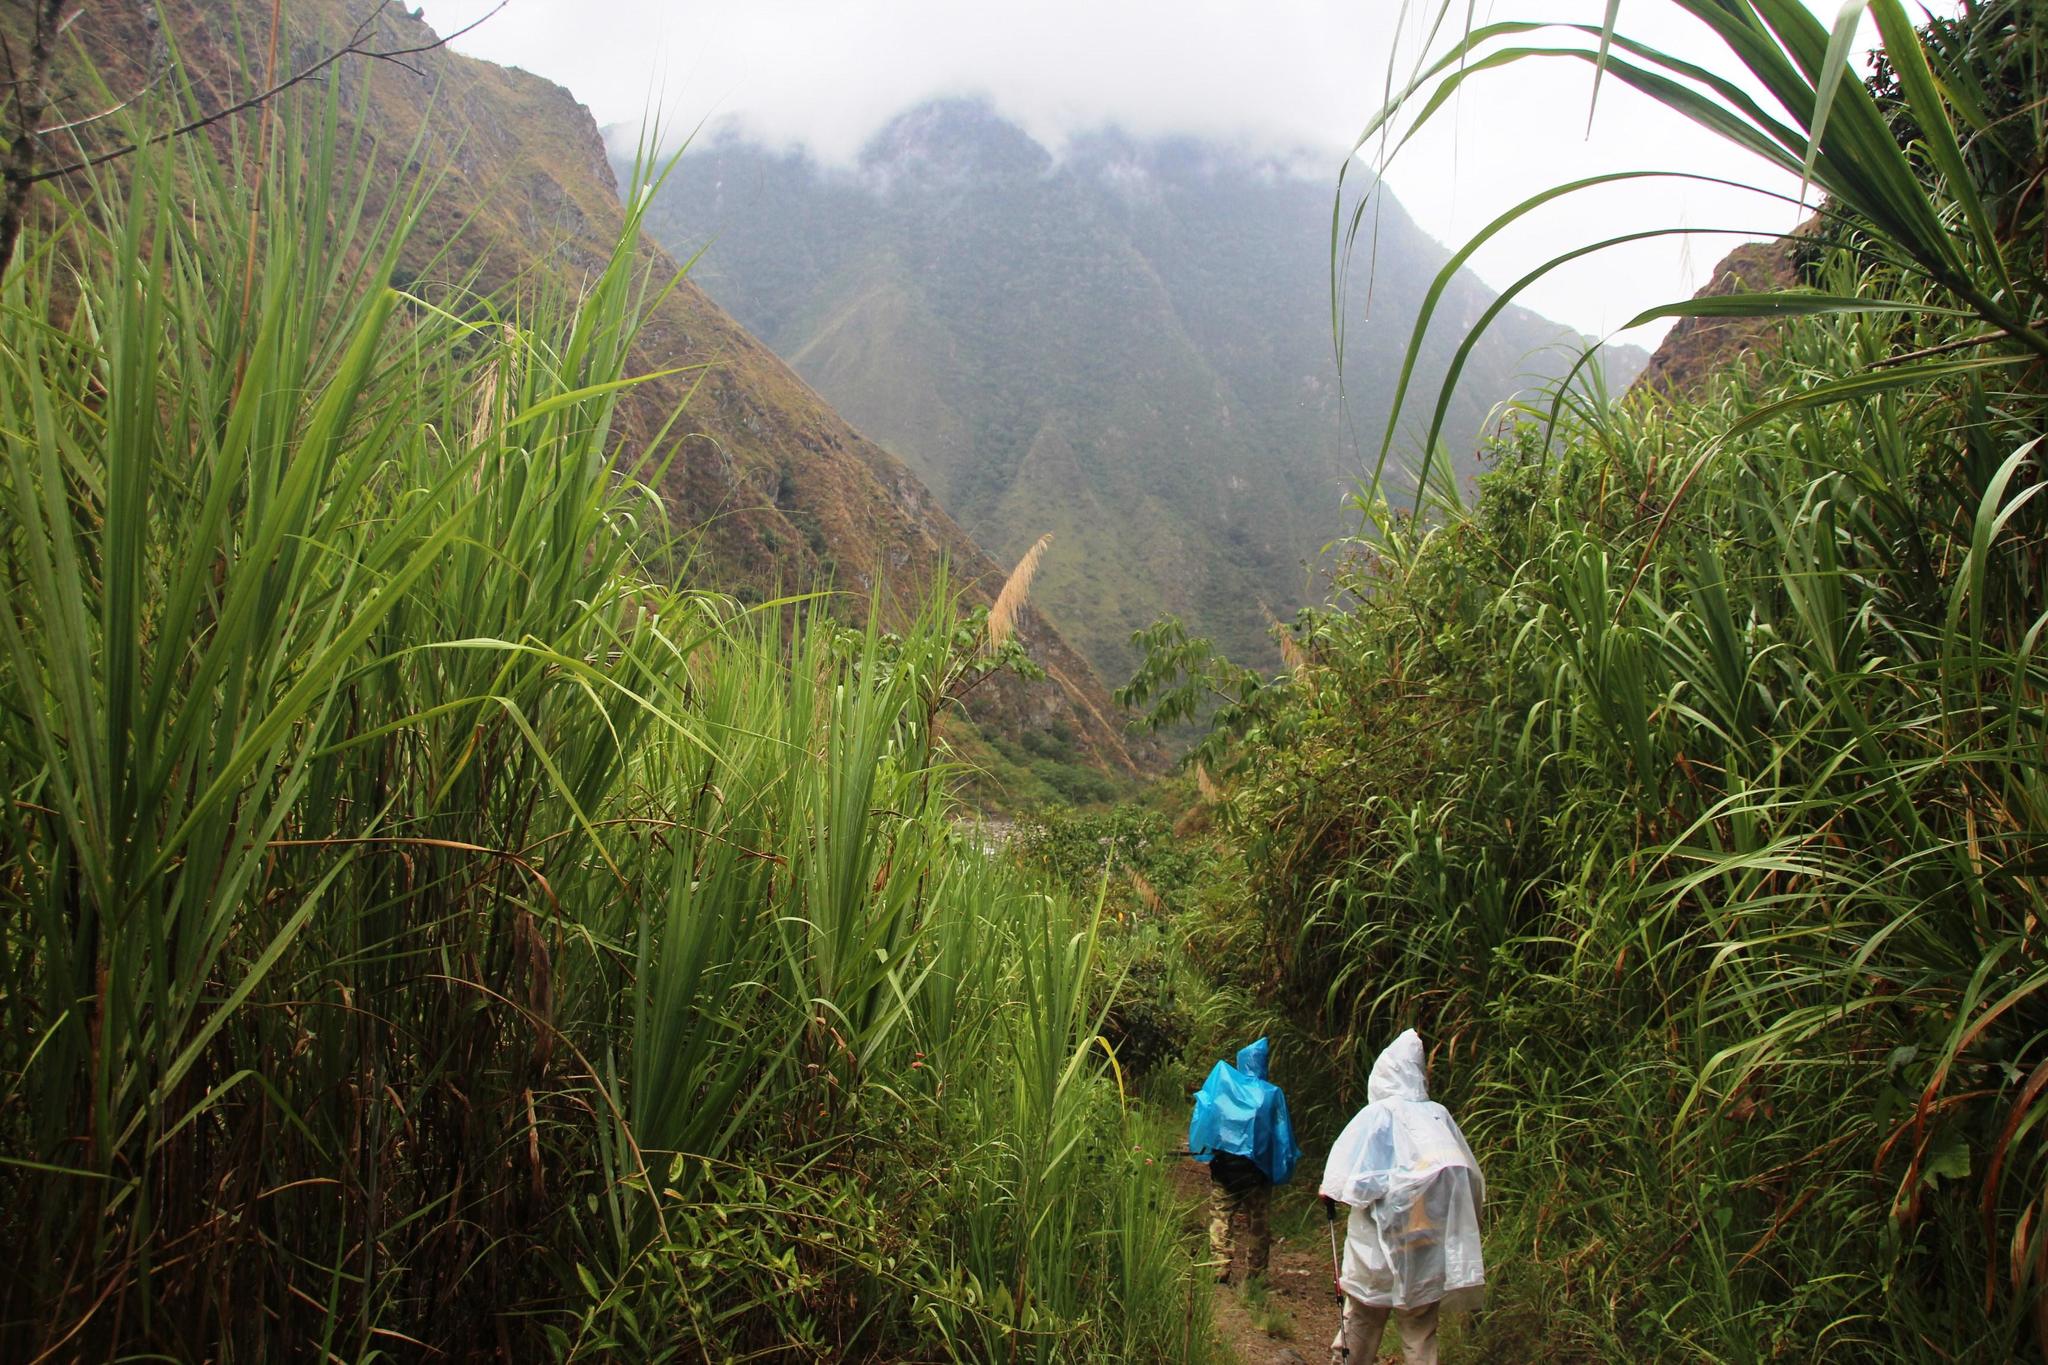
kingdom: Plantae
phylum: Tracheophyta
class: Liliopsida
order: Poales
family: Poaceae
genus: Gynerium
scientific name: Gynerium sagittatum
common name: Wild cane
